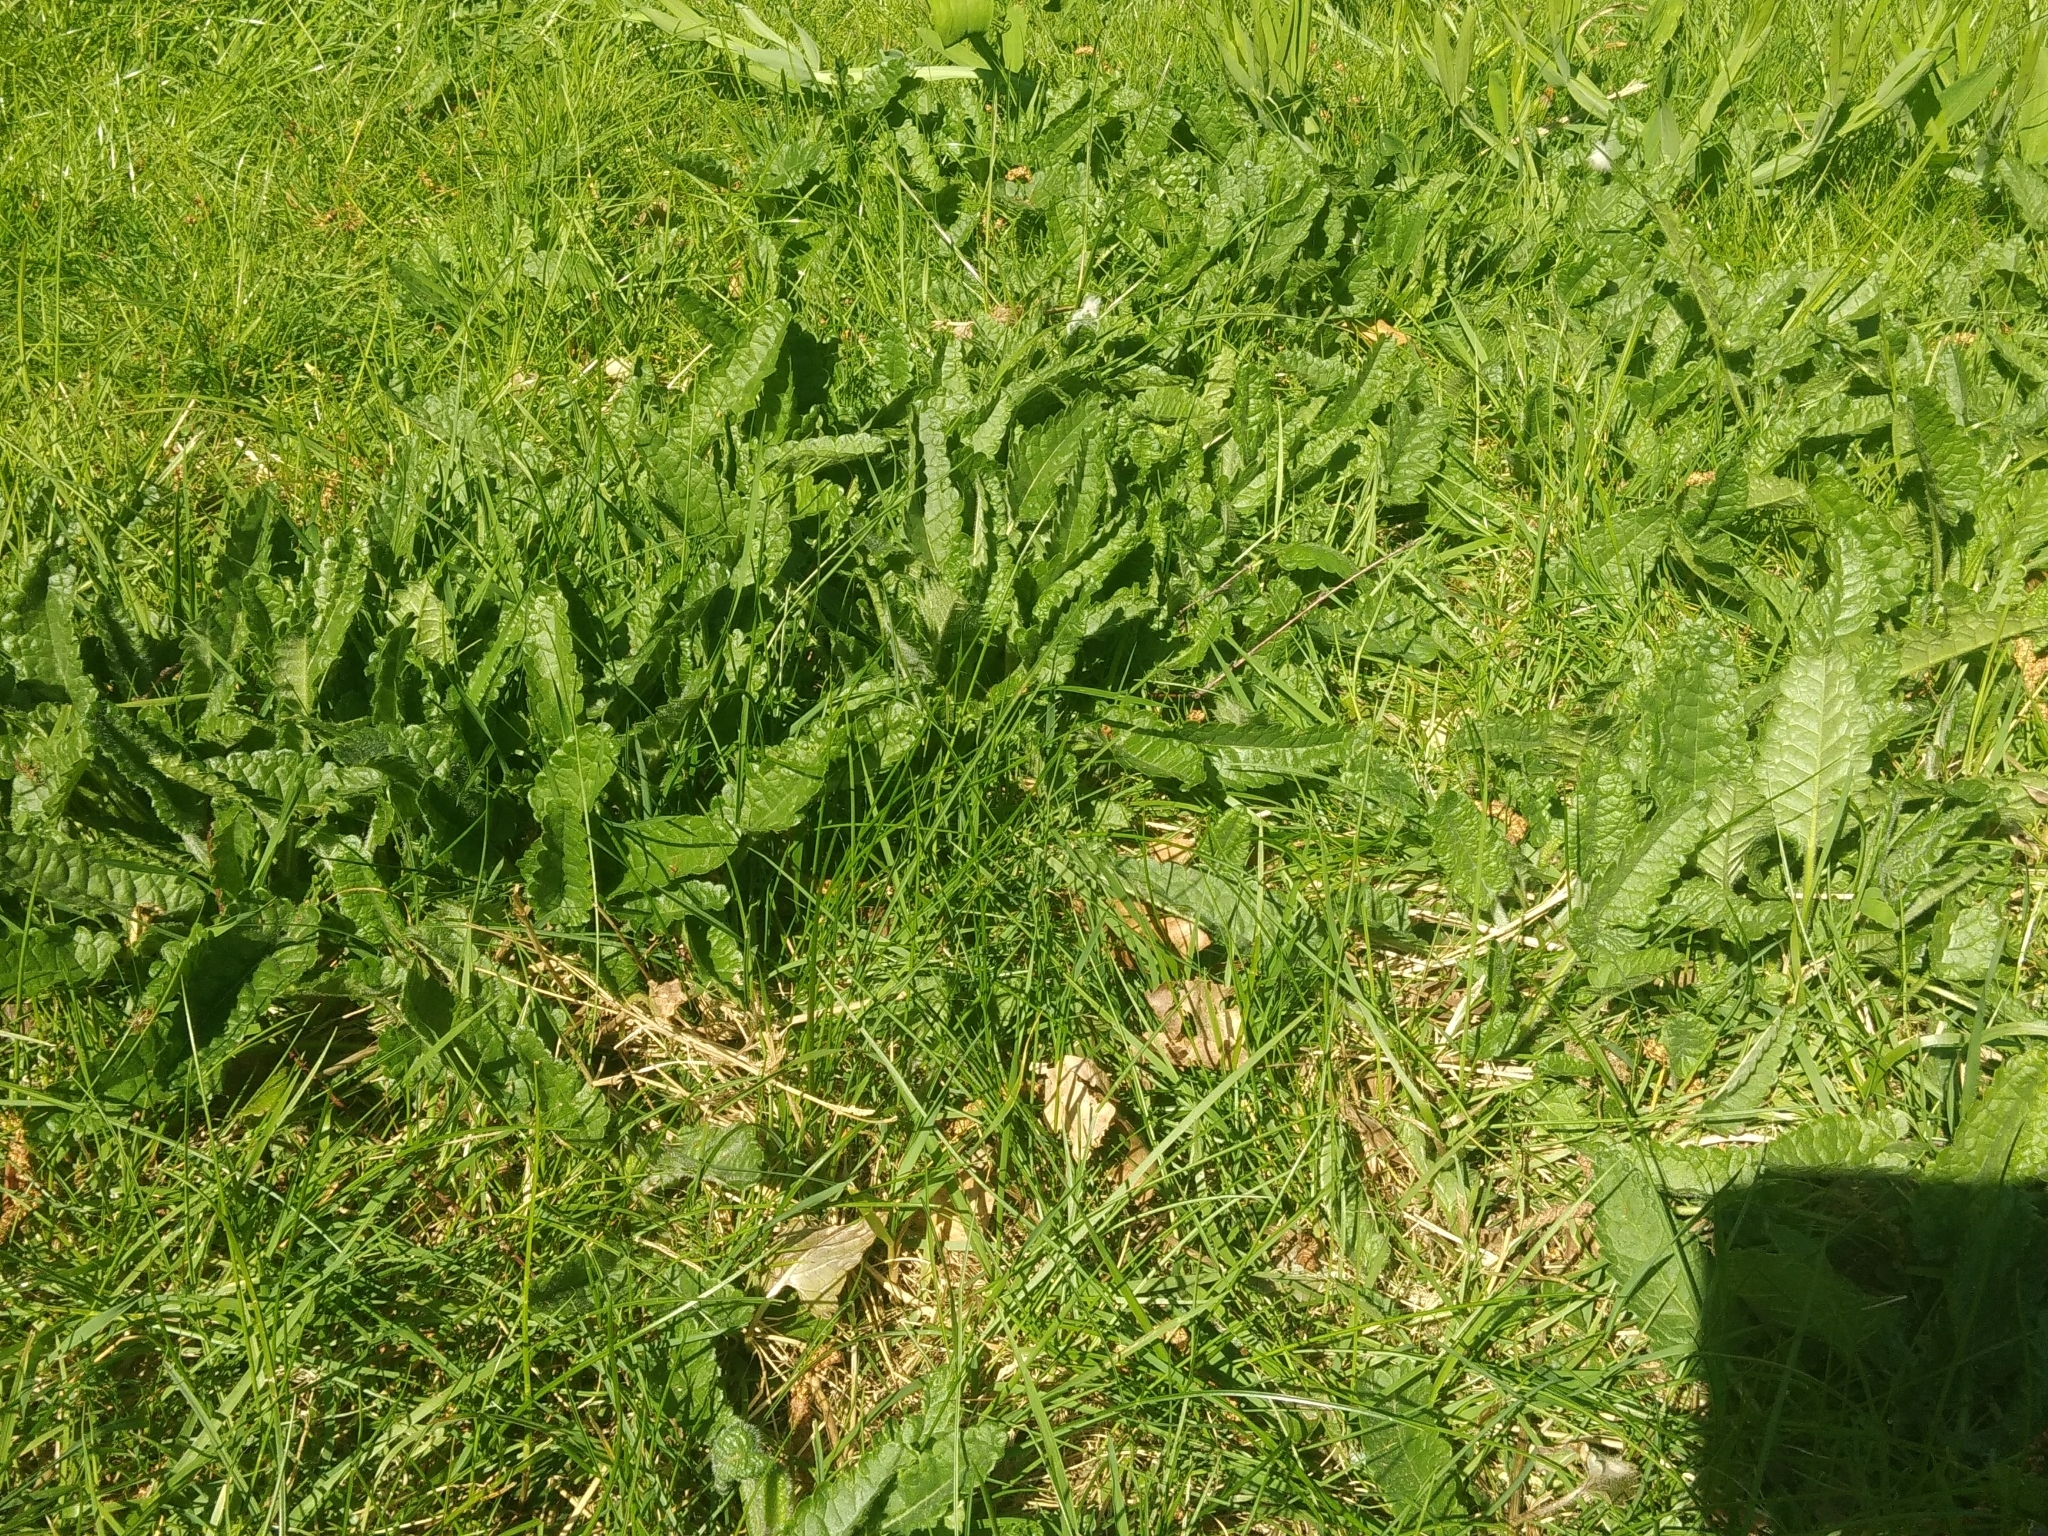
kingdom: Plantae
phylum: Tracheophyta
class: Magnoliopsida
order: Lamiales
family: Lamiaceae
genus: Betonica
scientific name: Betonica officinalis
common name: Bishop's-wort
